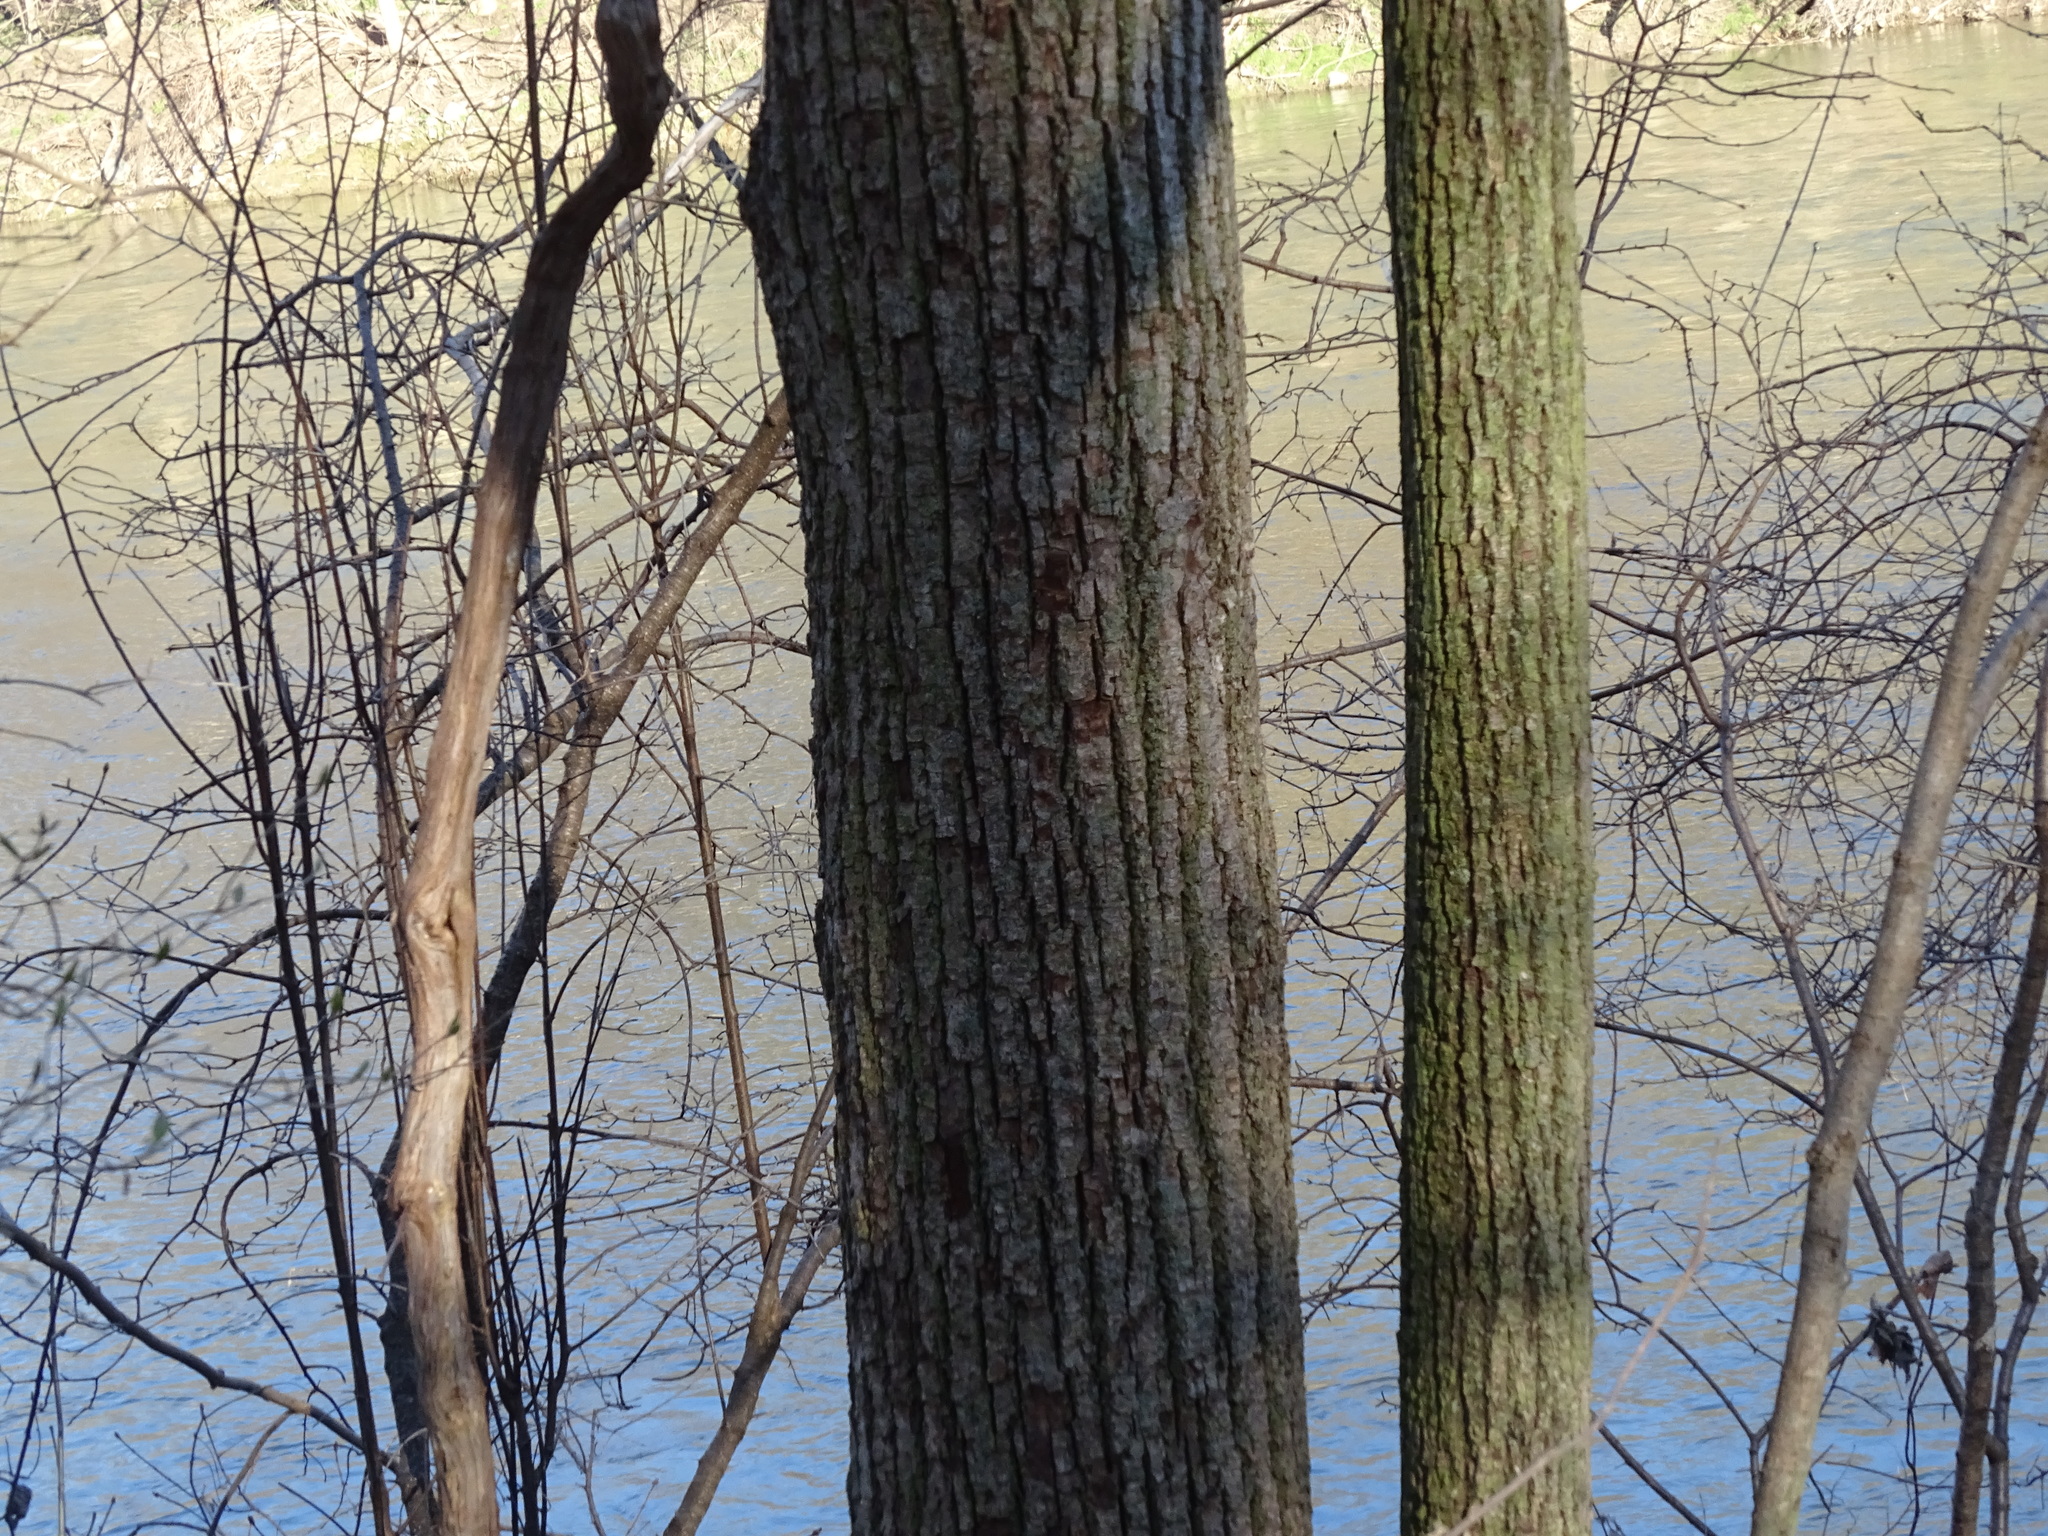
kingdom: Plantae
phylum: Tracheophyta
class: Magnoliopsida
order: Malvales
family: Malvaceae
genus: Tilia
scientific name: Tilia americana
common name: Basswood
